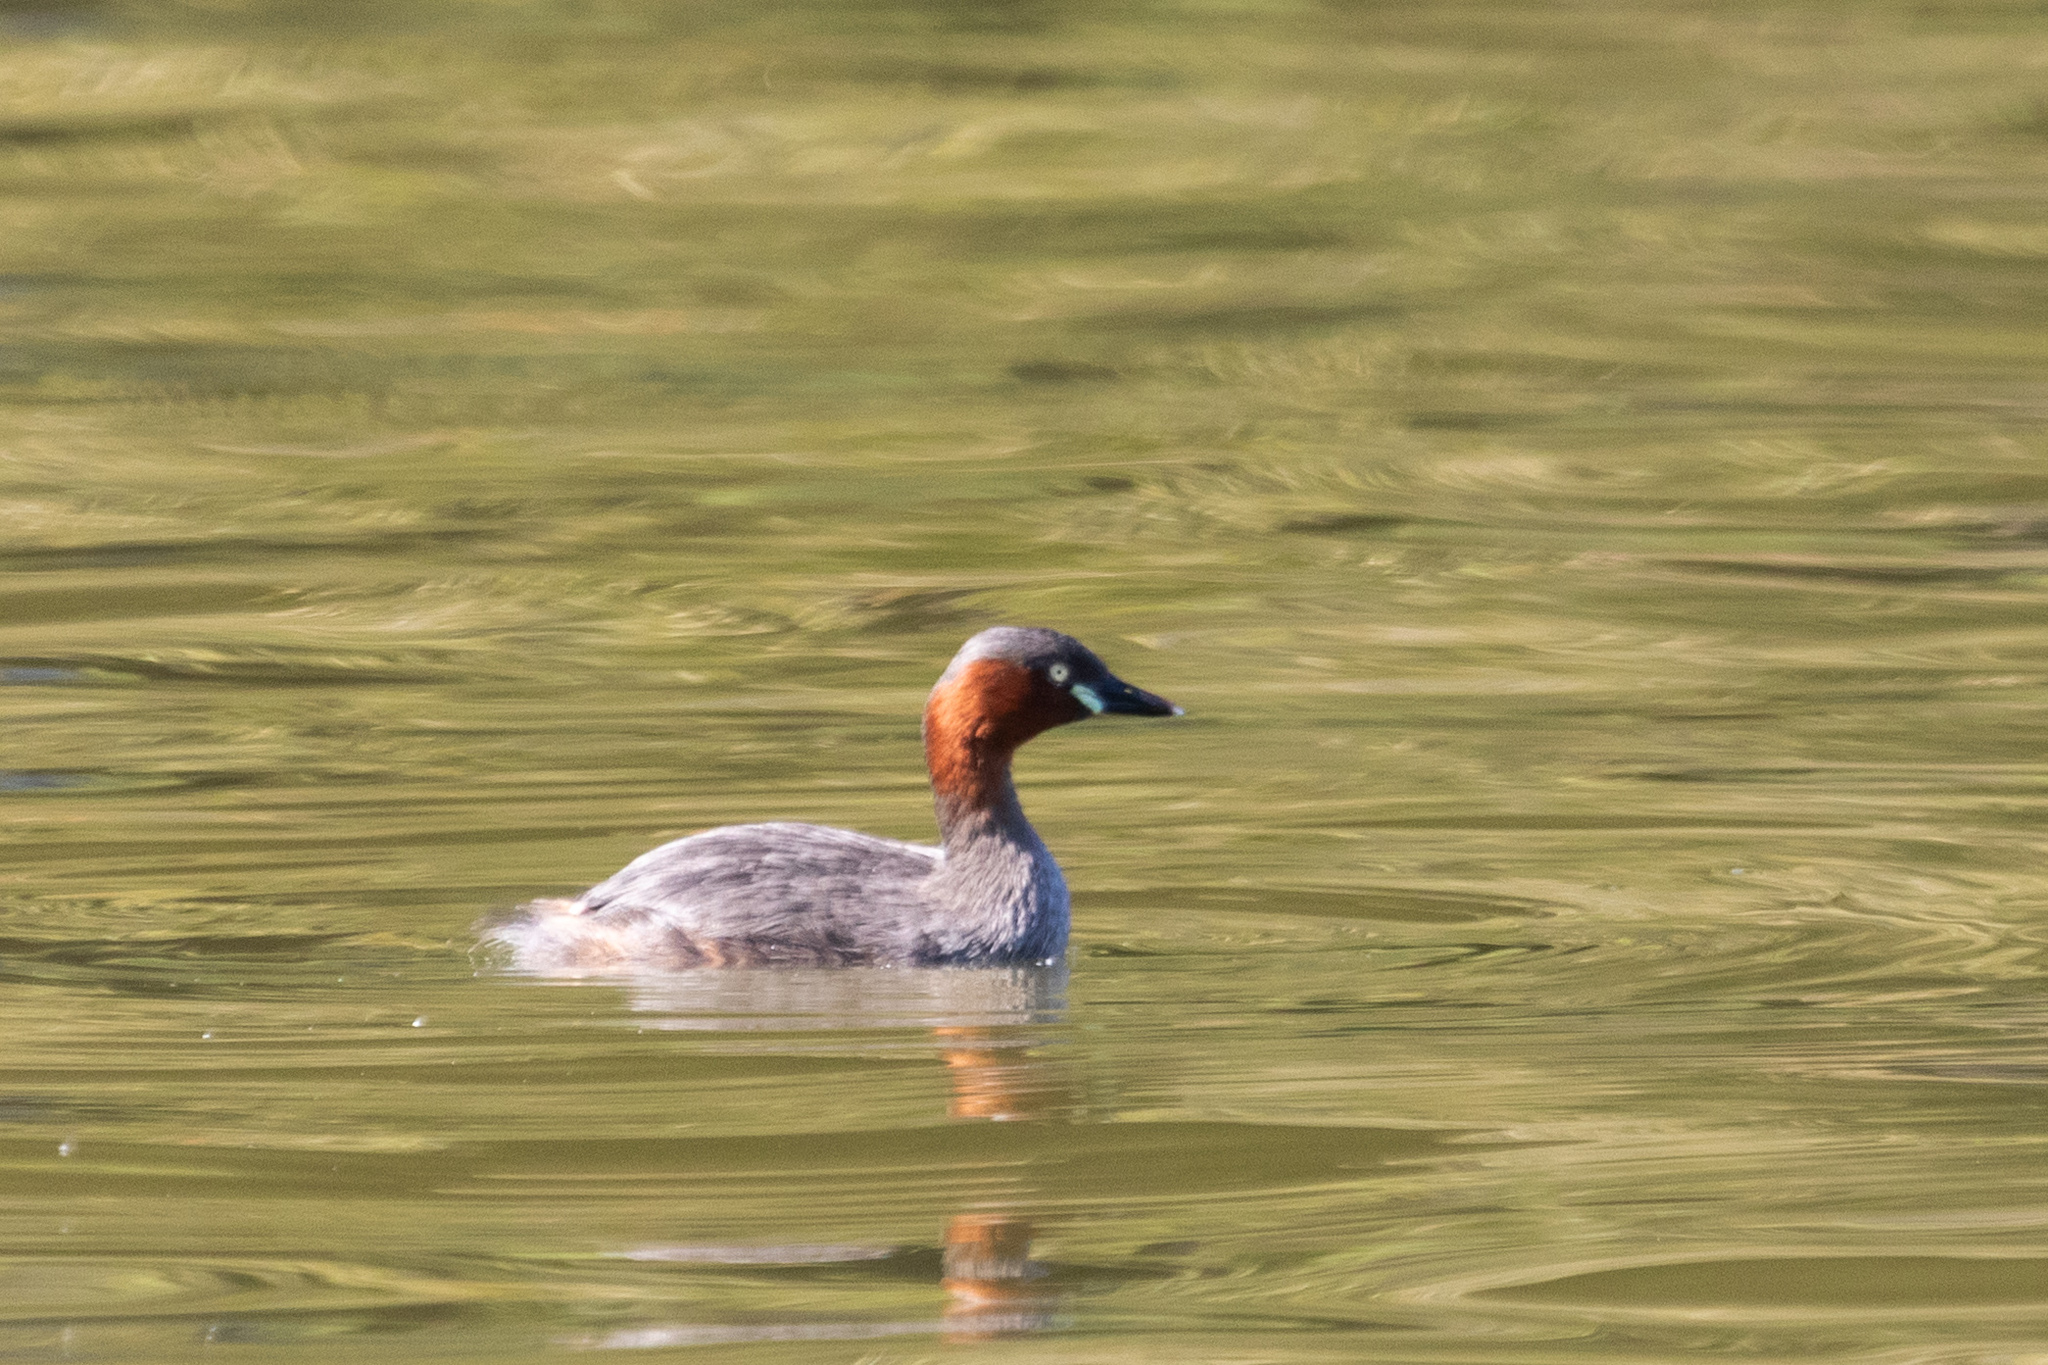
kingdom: Animalia
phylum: Chordata
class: Aves
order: Podicipediformes
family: Podicipedidae
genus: Tachybaptus
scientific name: Tachybaptus ruficollis
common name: Little grebe
